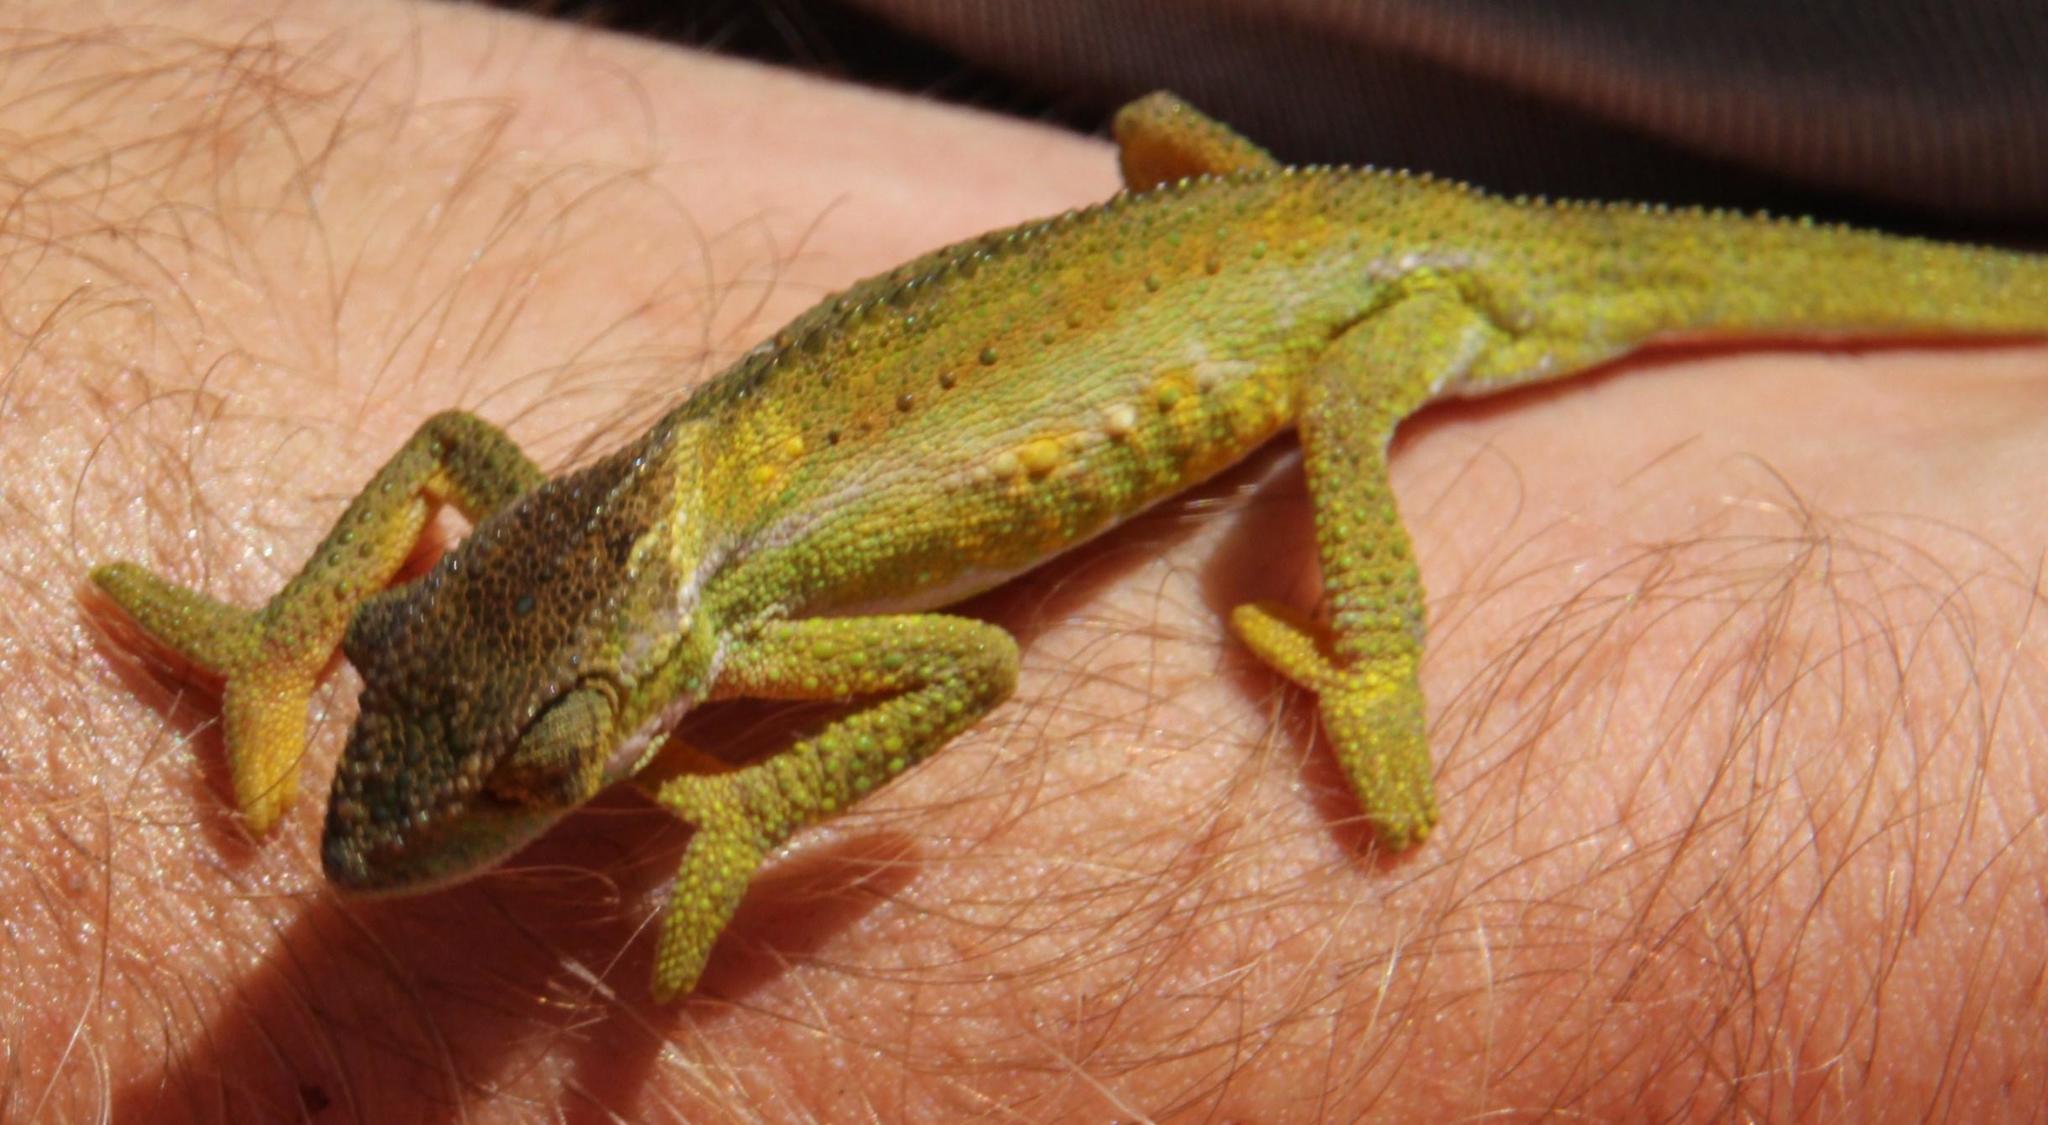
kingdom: Animalia
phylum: Chordata
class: Squamata
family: Chamaeleonidae
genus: Bradypodion
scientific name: Bradypodion pumilum
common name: Cape dwarf chameleon
